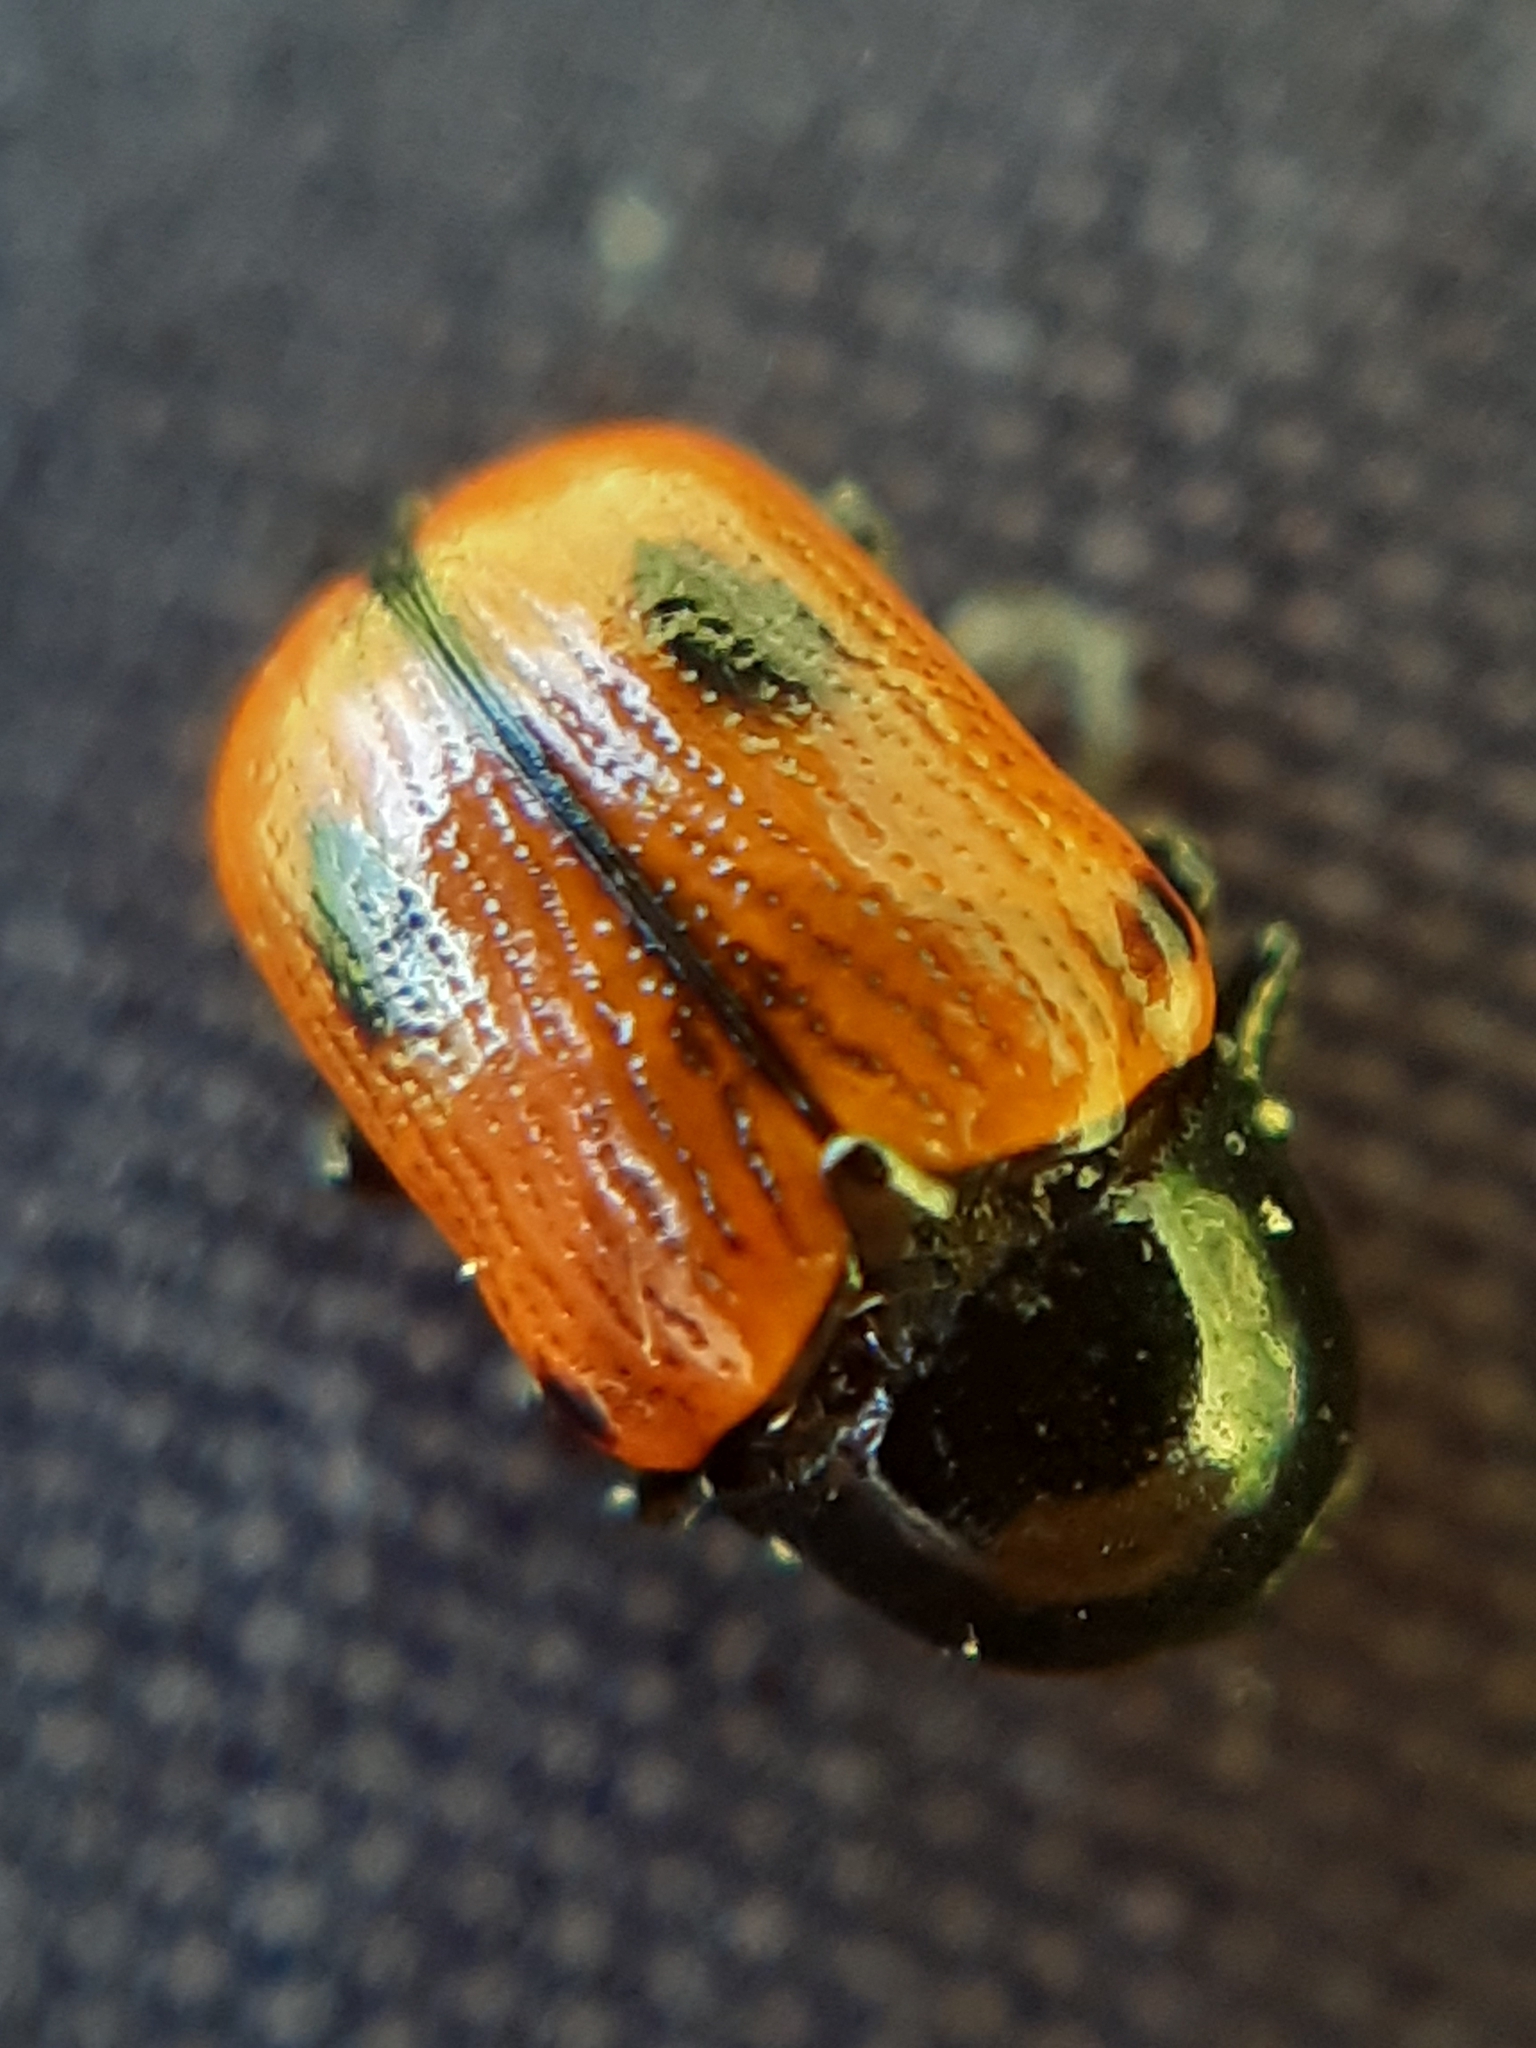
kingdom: Animalia
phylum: Arthropoda
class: Insecta
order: Coleoptera
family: Chrysomelidae
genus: Chiridopsis
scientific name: Chiridopsis bipunctata
